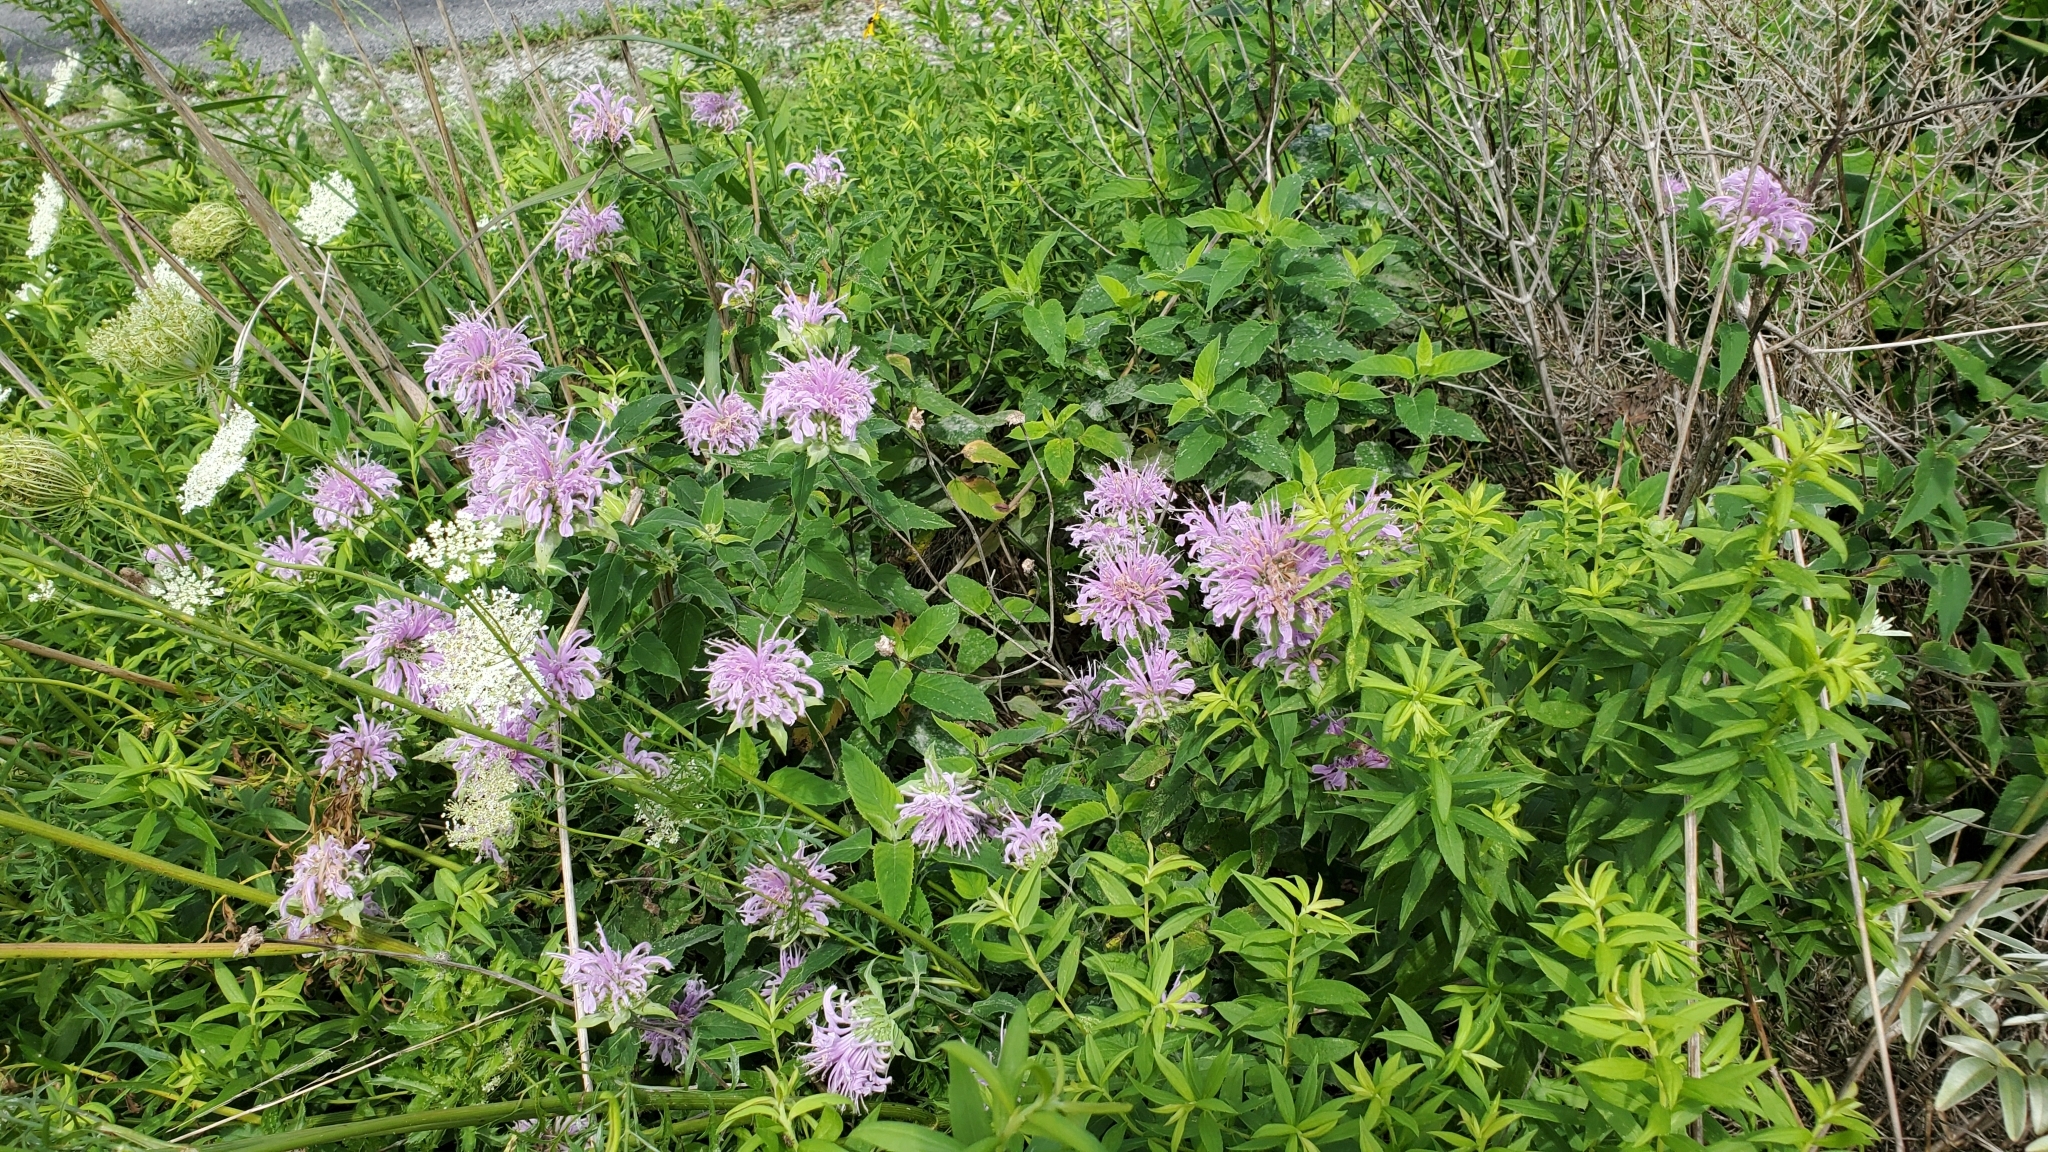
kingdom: Plantae
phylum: Tracheophyta
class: Magnoliopsida
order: Lamiales
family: Lamiaceae
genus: Monarda
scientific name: Monarda fistulosa
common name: Purple beebalm
